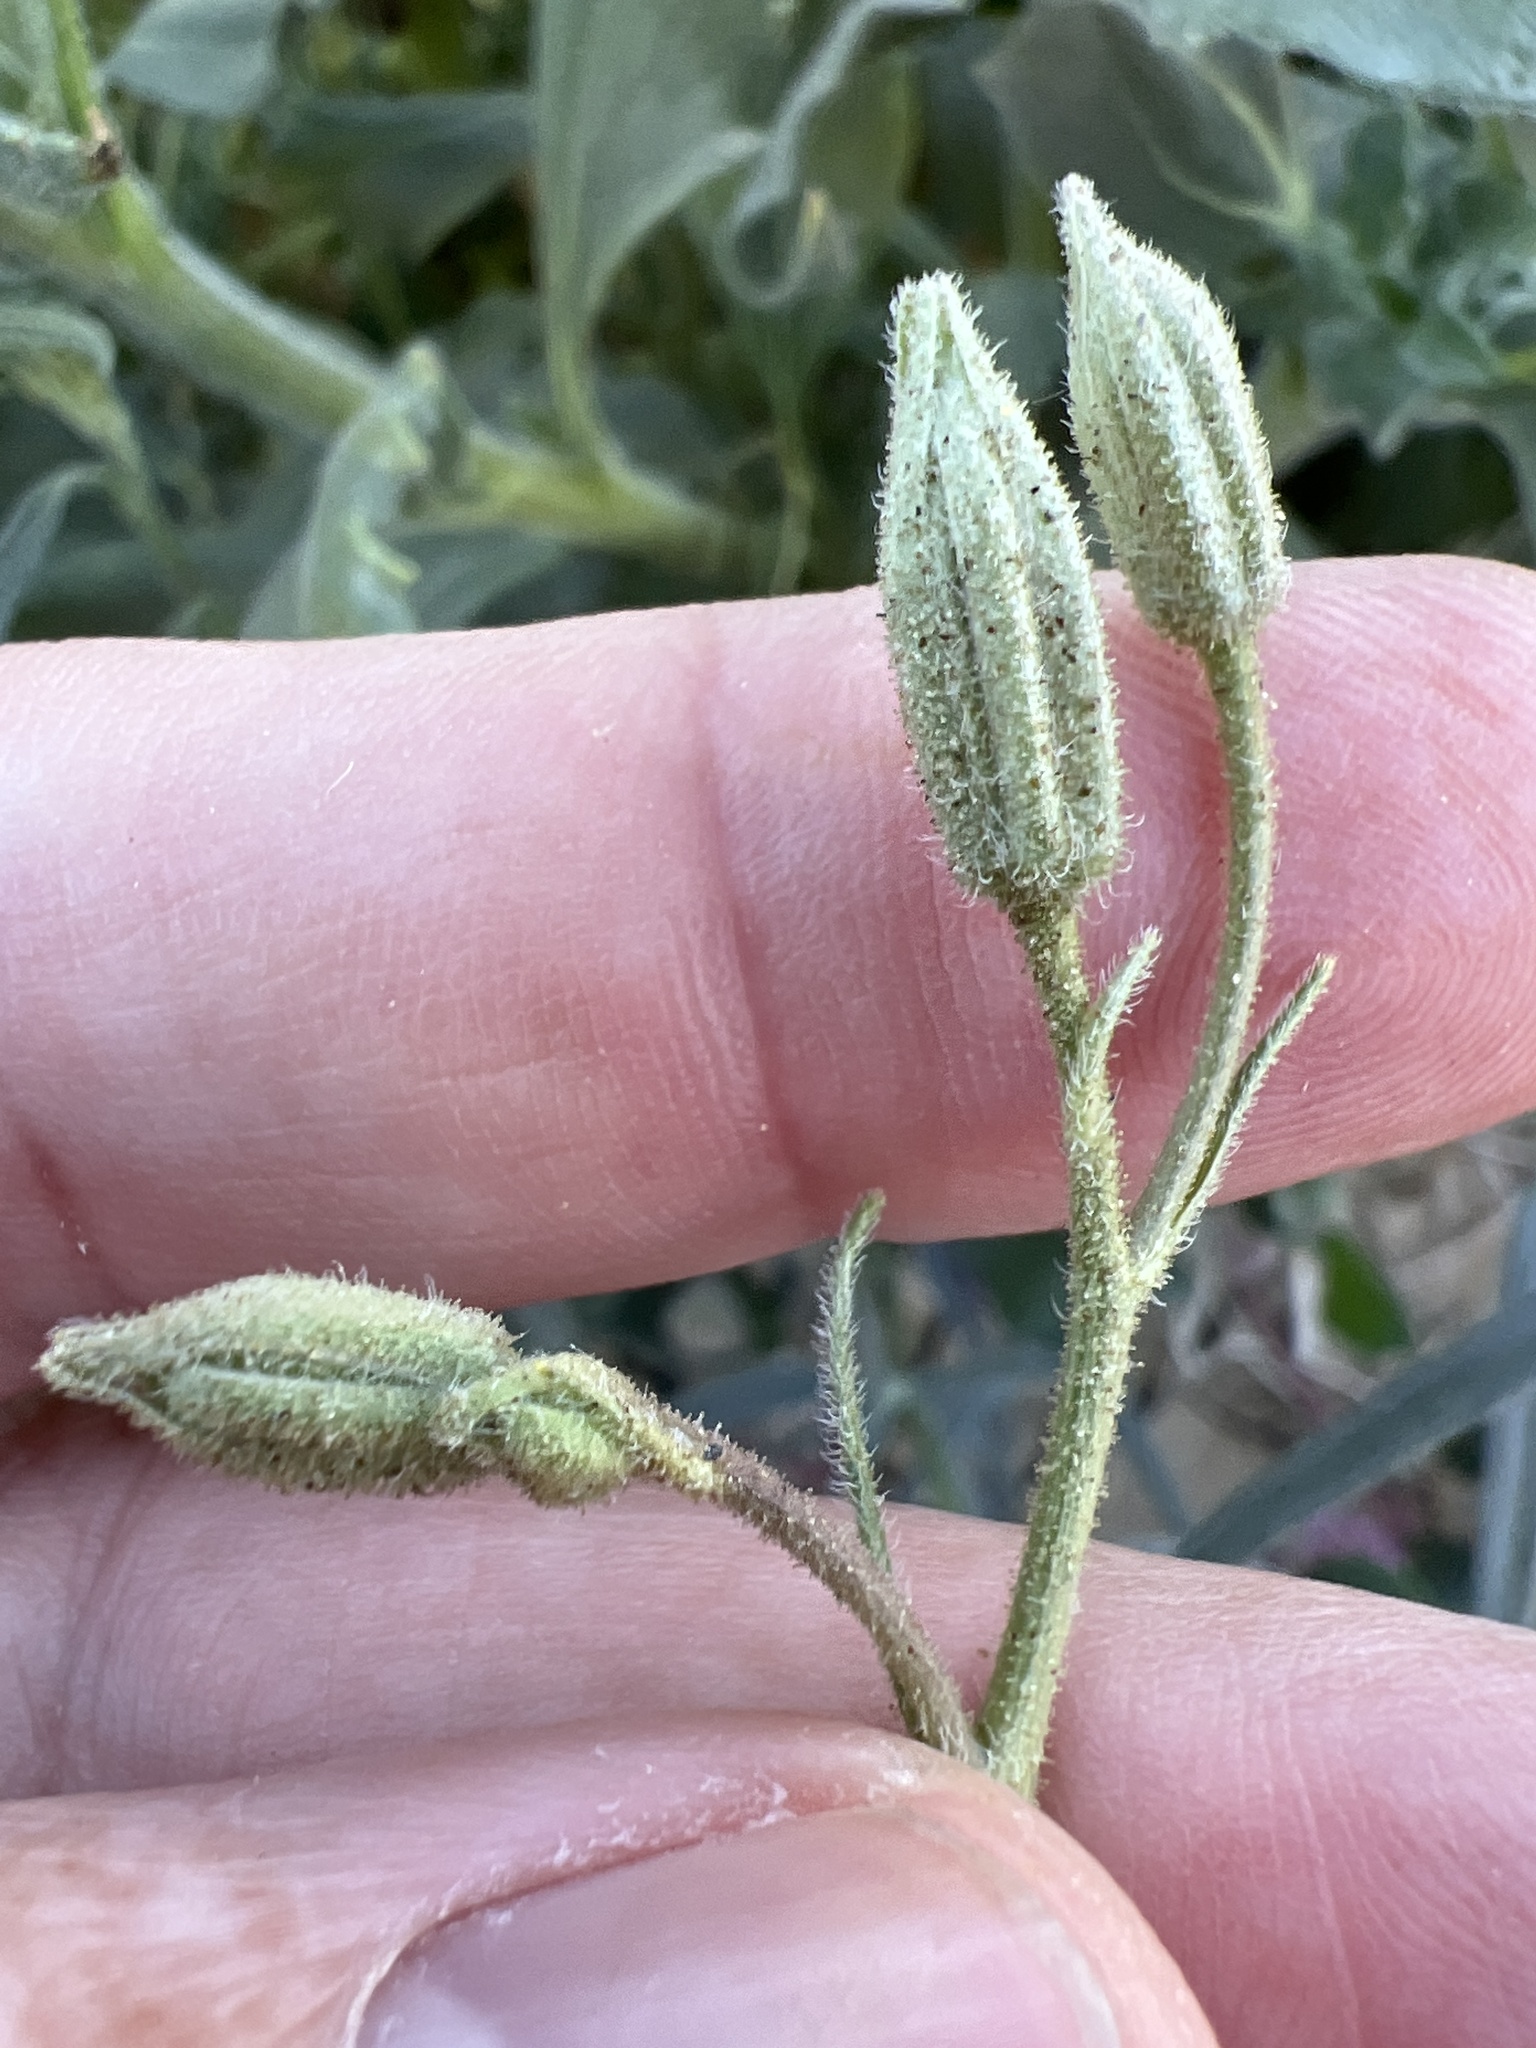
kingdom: Plantae
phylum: Tracheophyta
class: Magnoliopsida
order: Asterales
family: Asteraceae
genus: Palafoxia
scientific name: Palafoxia arida
